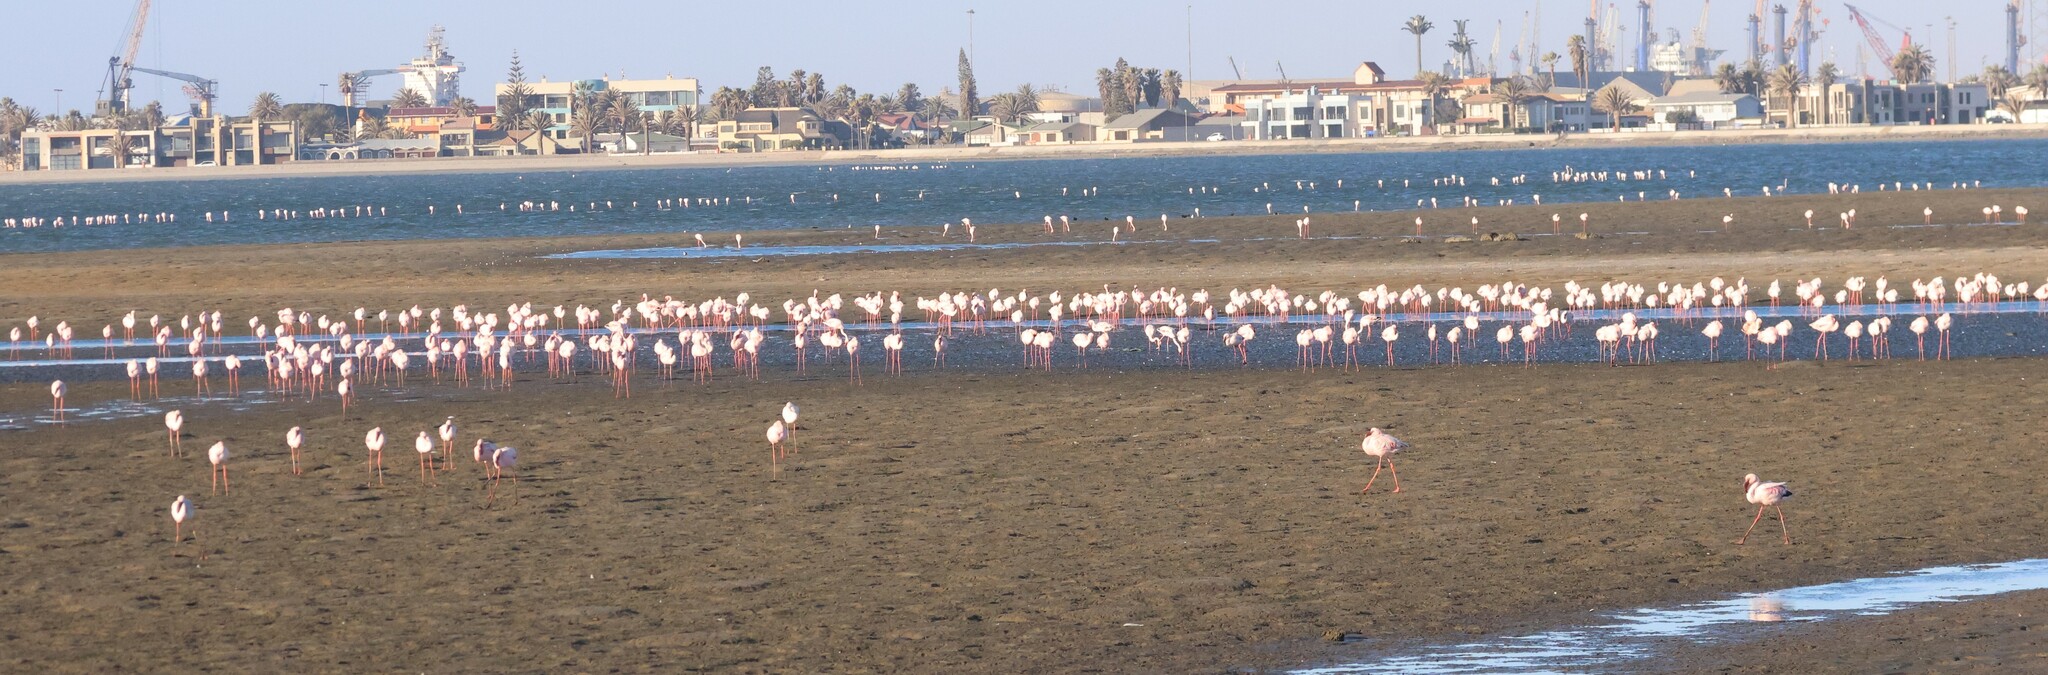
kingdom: Animalia
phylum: Chordata
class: Aves
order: Phoenicopteriformes
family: Phoenicopteridae
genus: Phoeniconaias
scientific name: Phoeniconaias minor
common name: Lesser flamingo
